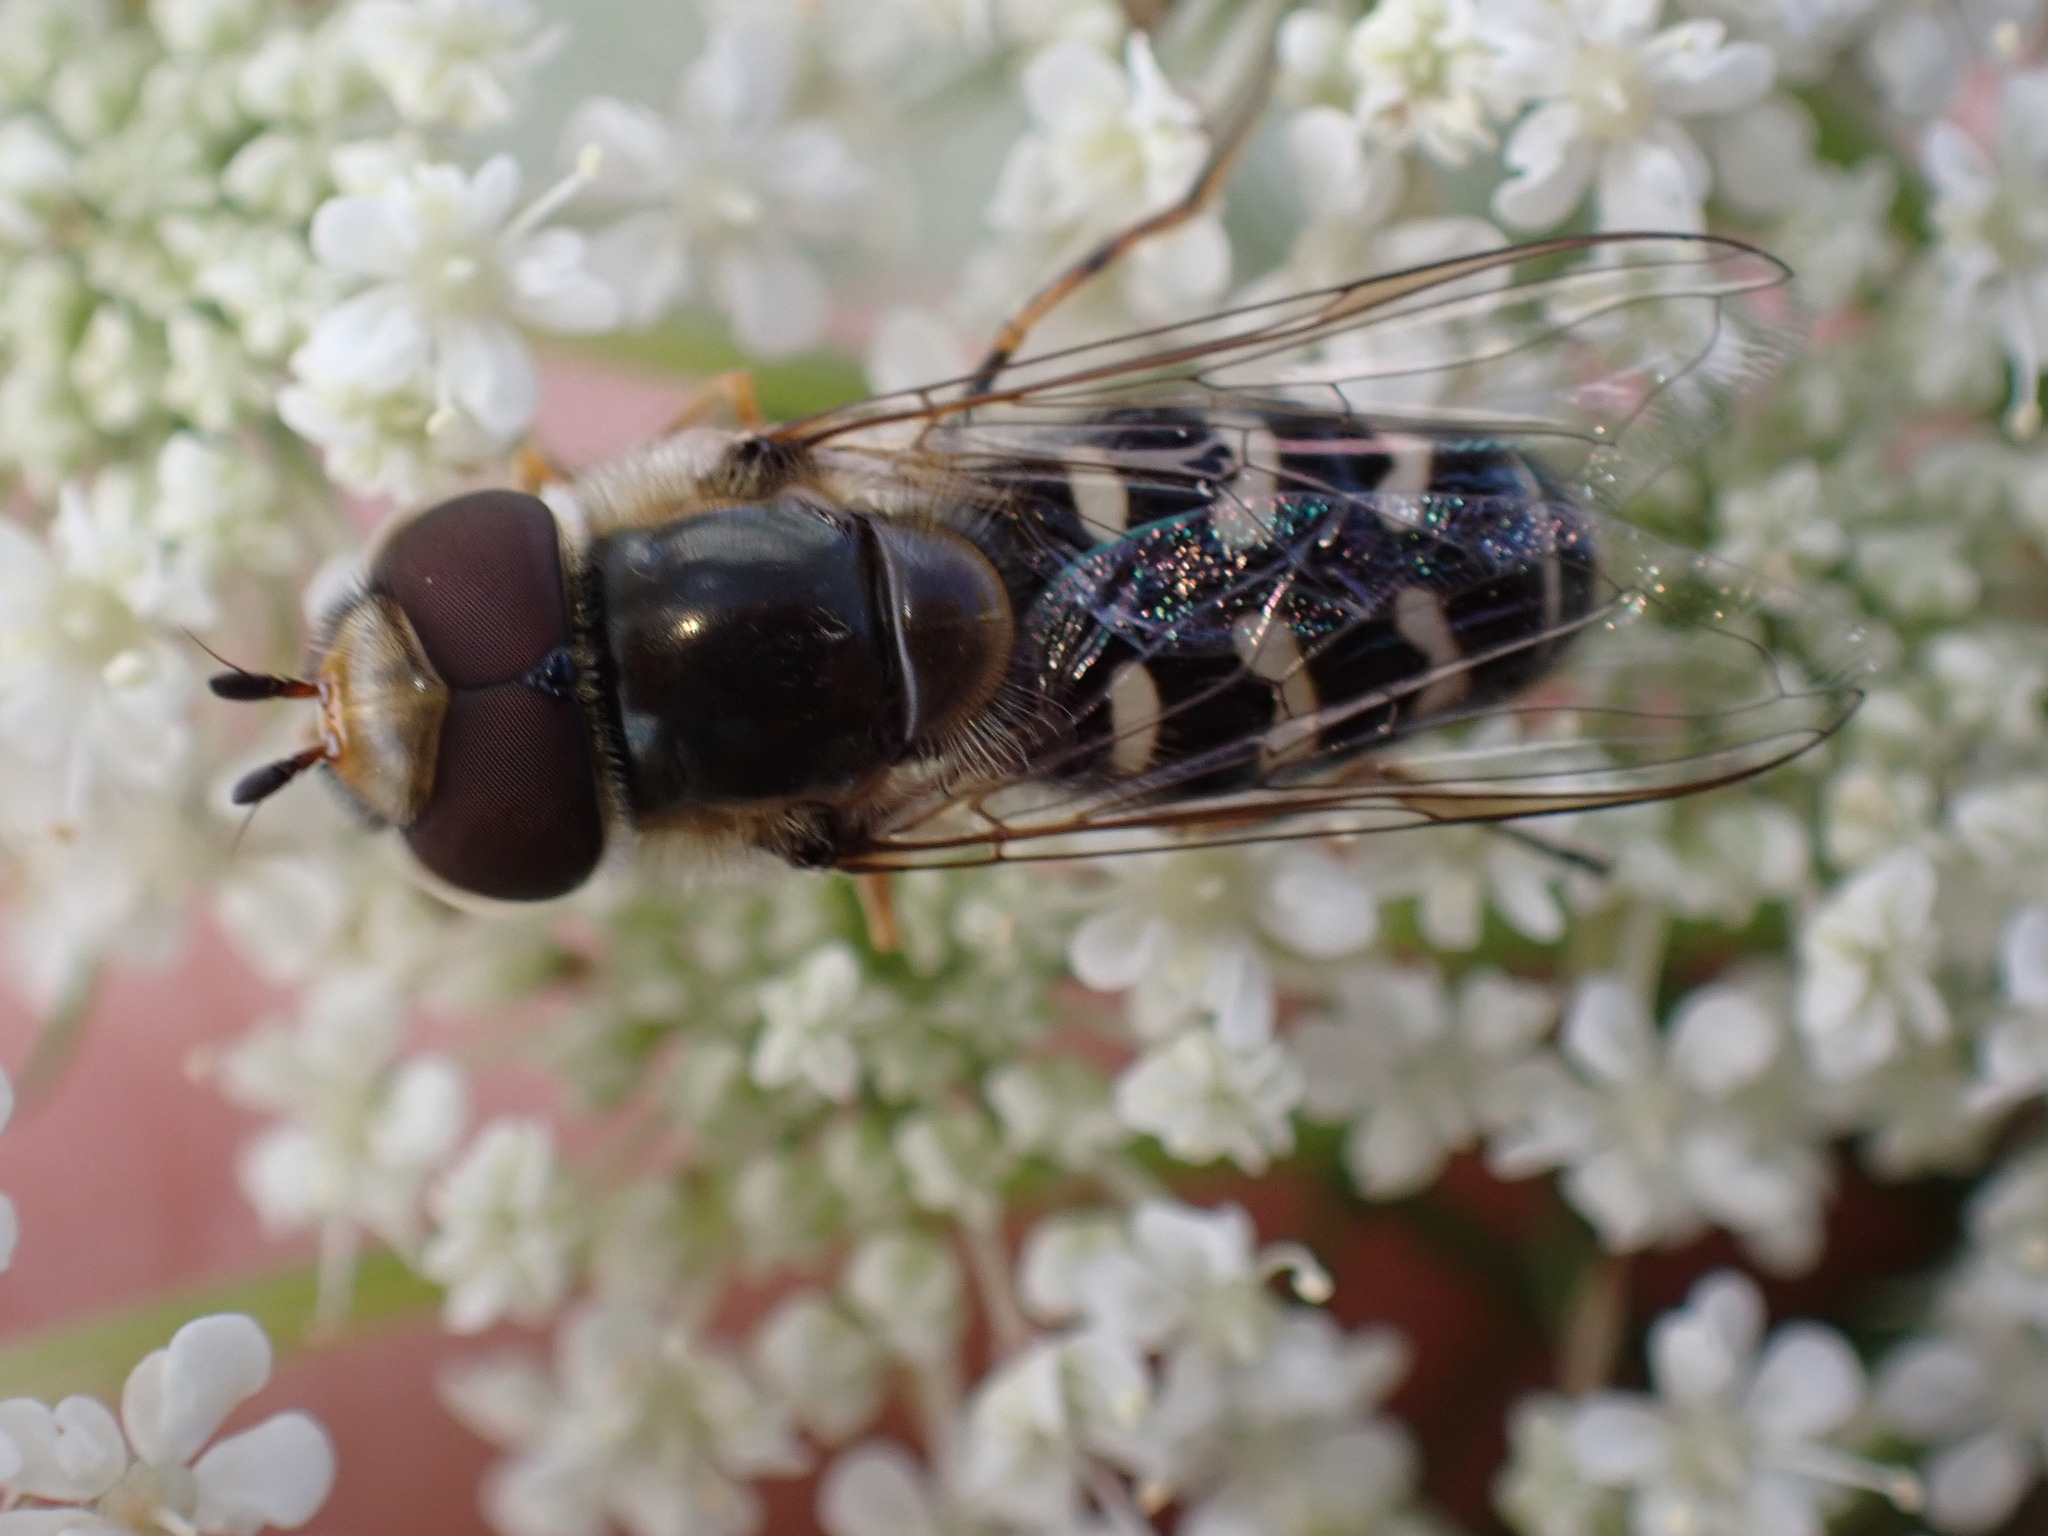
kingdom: Animalia
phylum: Arthropoda
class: Insecta
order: Diptera
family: Syrphidae
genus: Scaeva
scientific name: Scaeva pyrastri
